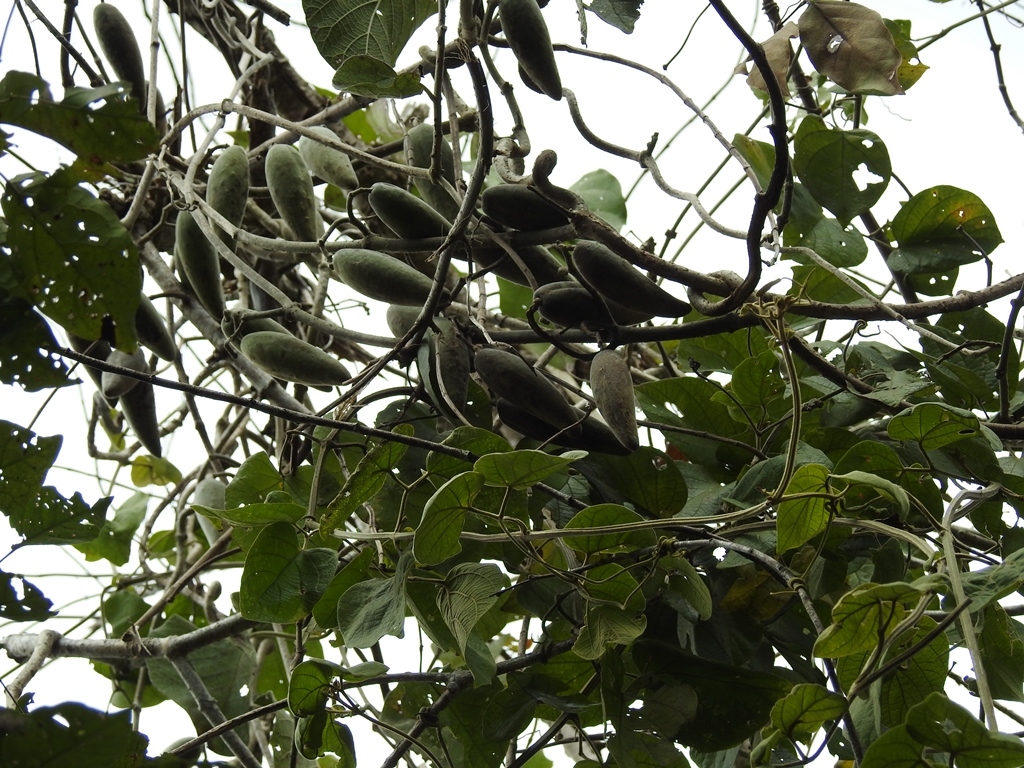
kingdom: Plantae
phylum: Tracheophyta
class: Magnoliopsida
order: Gentianales
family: Apocynaceae
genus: Ruehssia
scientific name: Ruehssia mexicana
